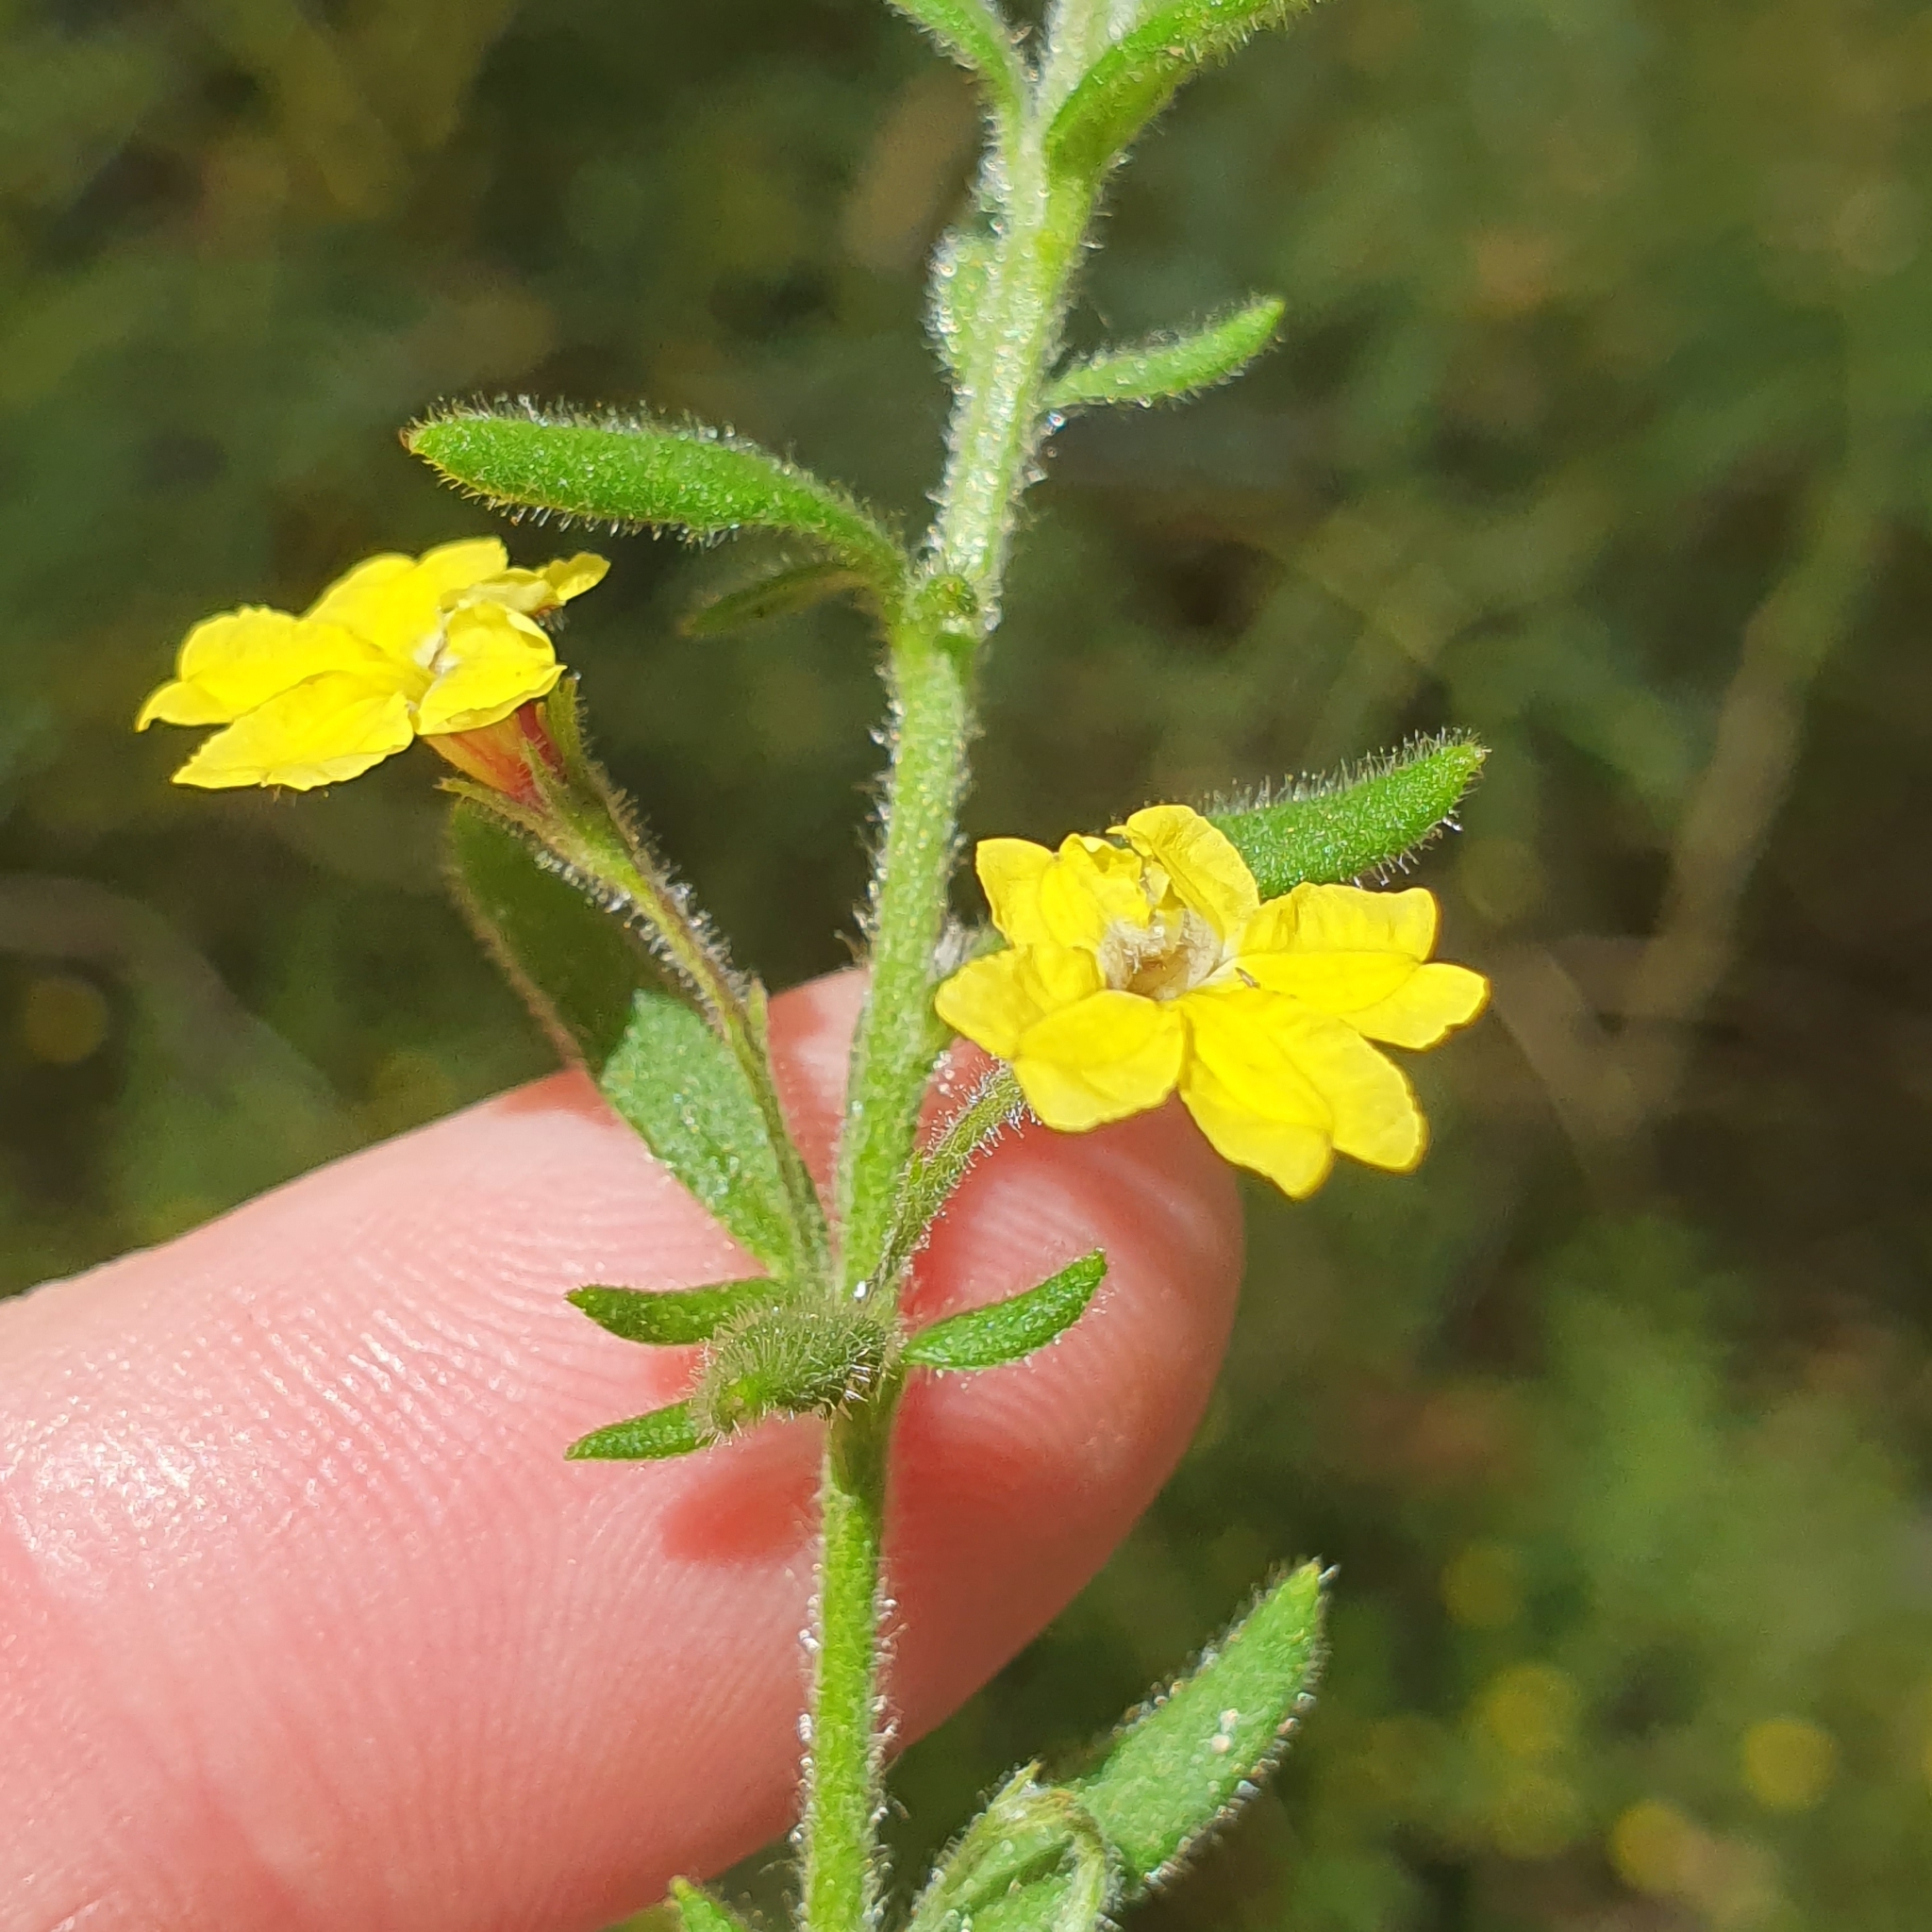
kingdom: Plantae
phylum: Tracheophyta
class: Magnoliopsida
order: Asterales
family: Goodeniaceae
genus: Goodenia
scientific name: Goodenia heterophylla
